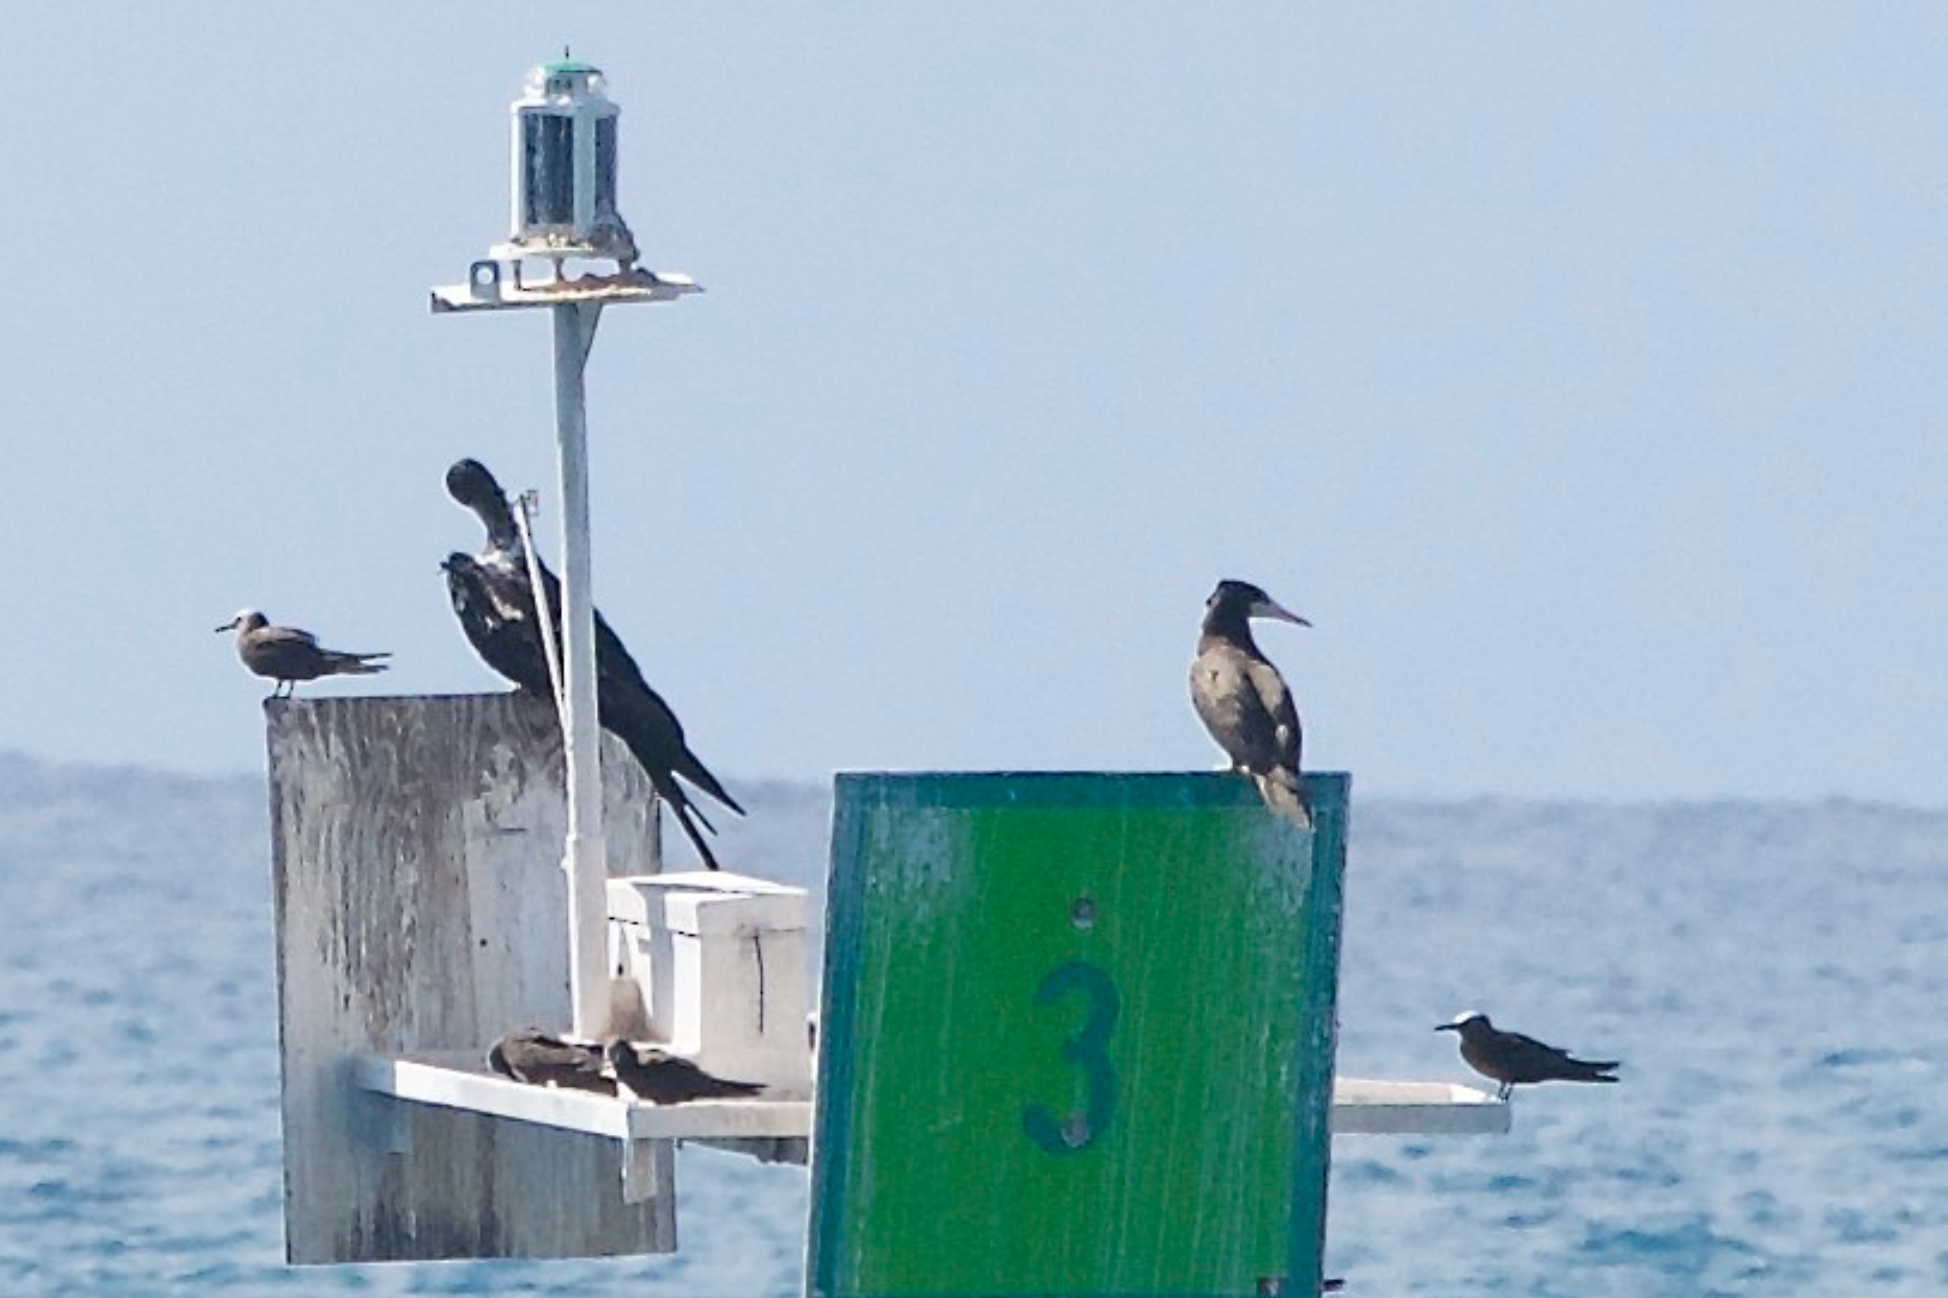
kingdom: Animalia
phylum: Chordata
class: Aves
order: Suliformes
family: Sulidae
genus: Sula
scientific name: Sula leucogaster
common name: Brown booby
